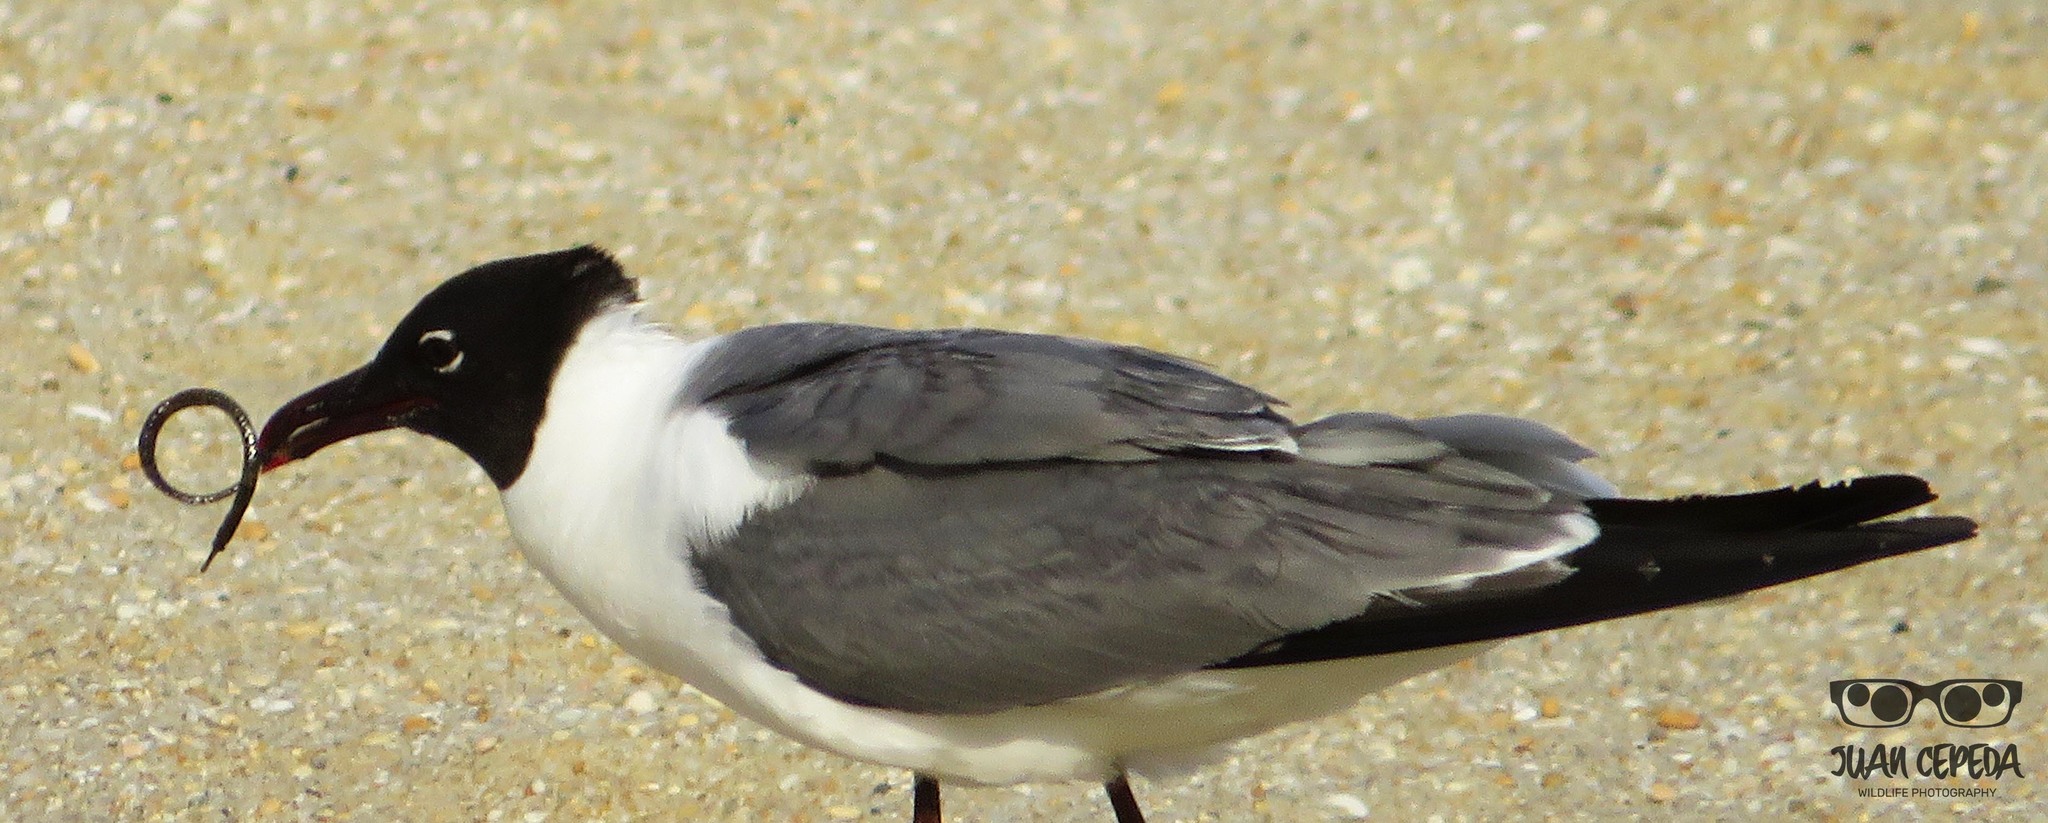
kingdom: Animalia
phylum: Chordata
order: Syngnathiformes
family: Syngnathidae
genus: Syngnathus
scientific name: Syngnathus fuscus
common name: Northern pipefish
